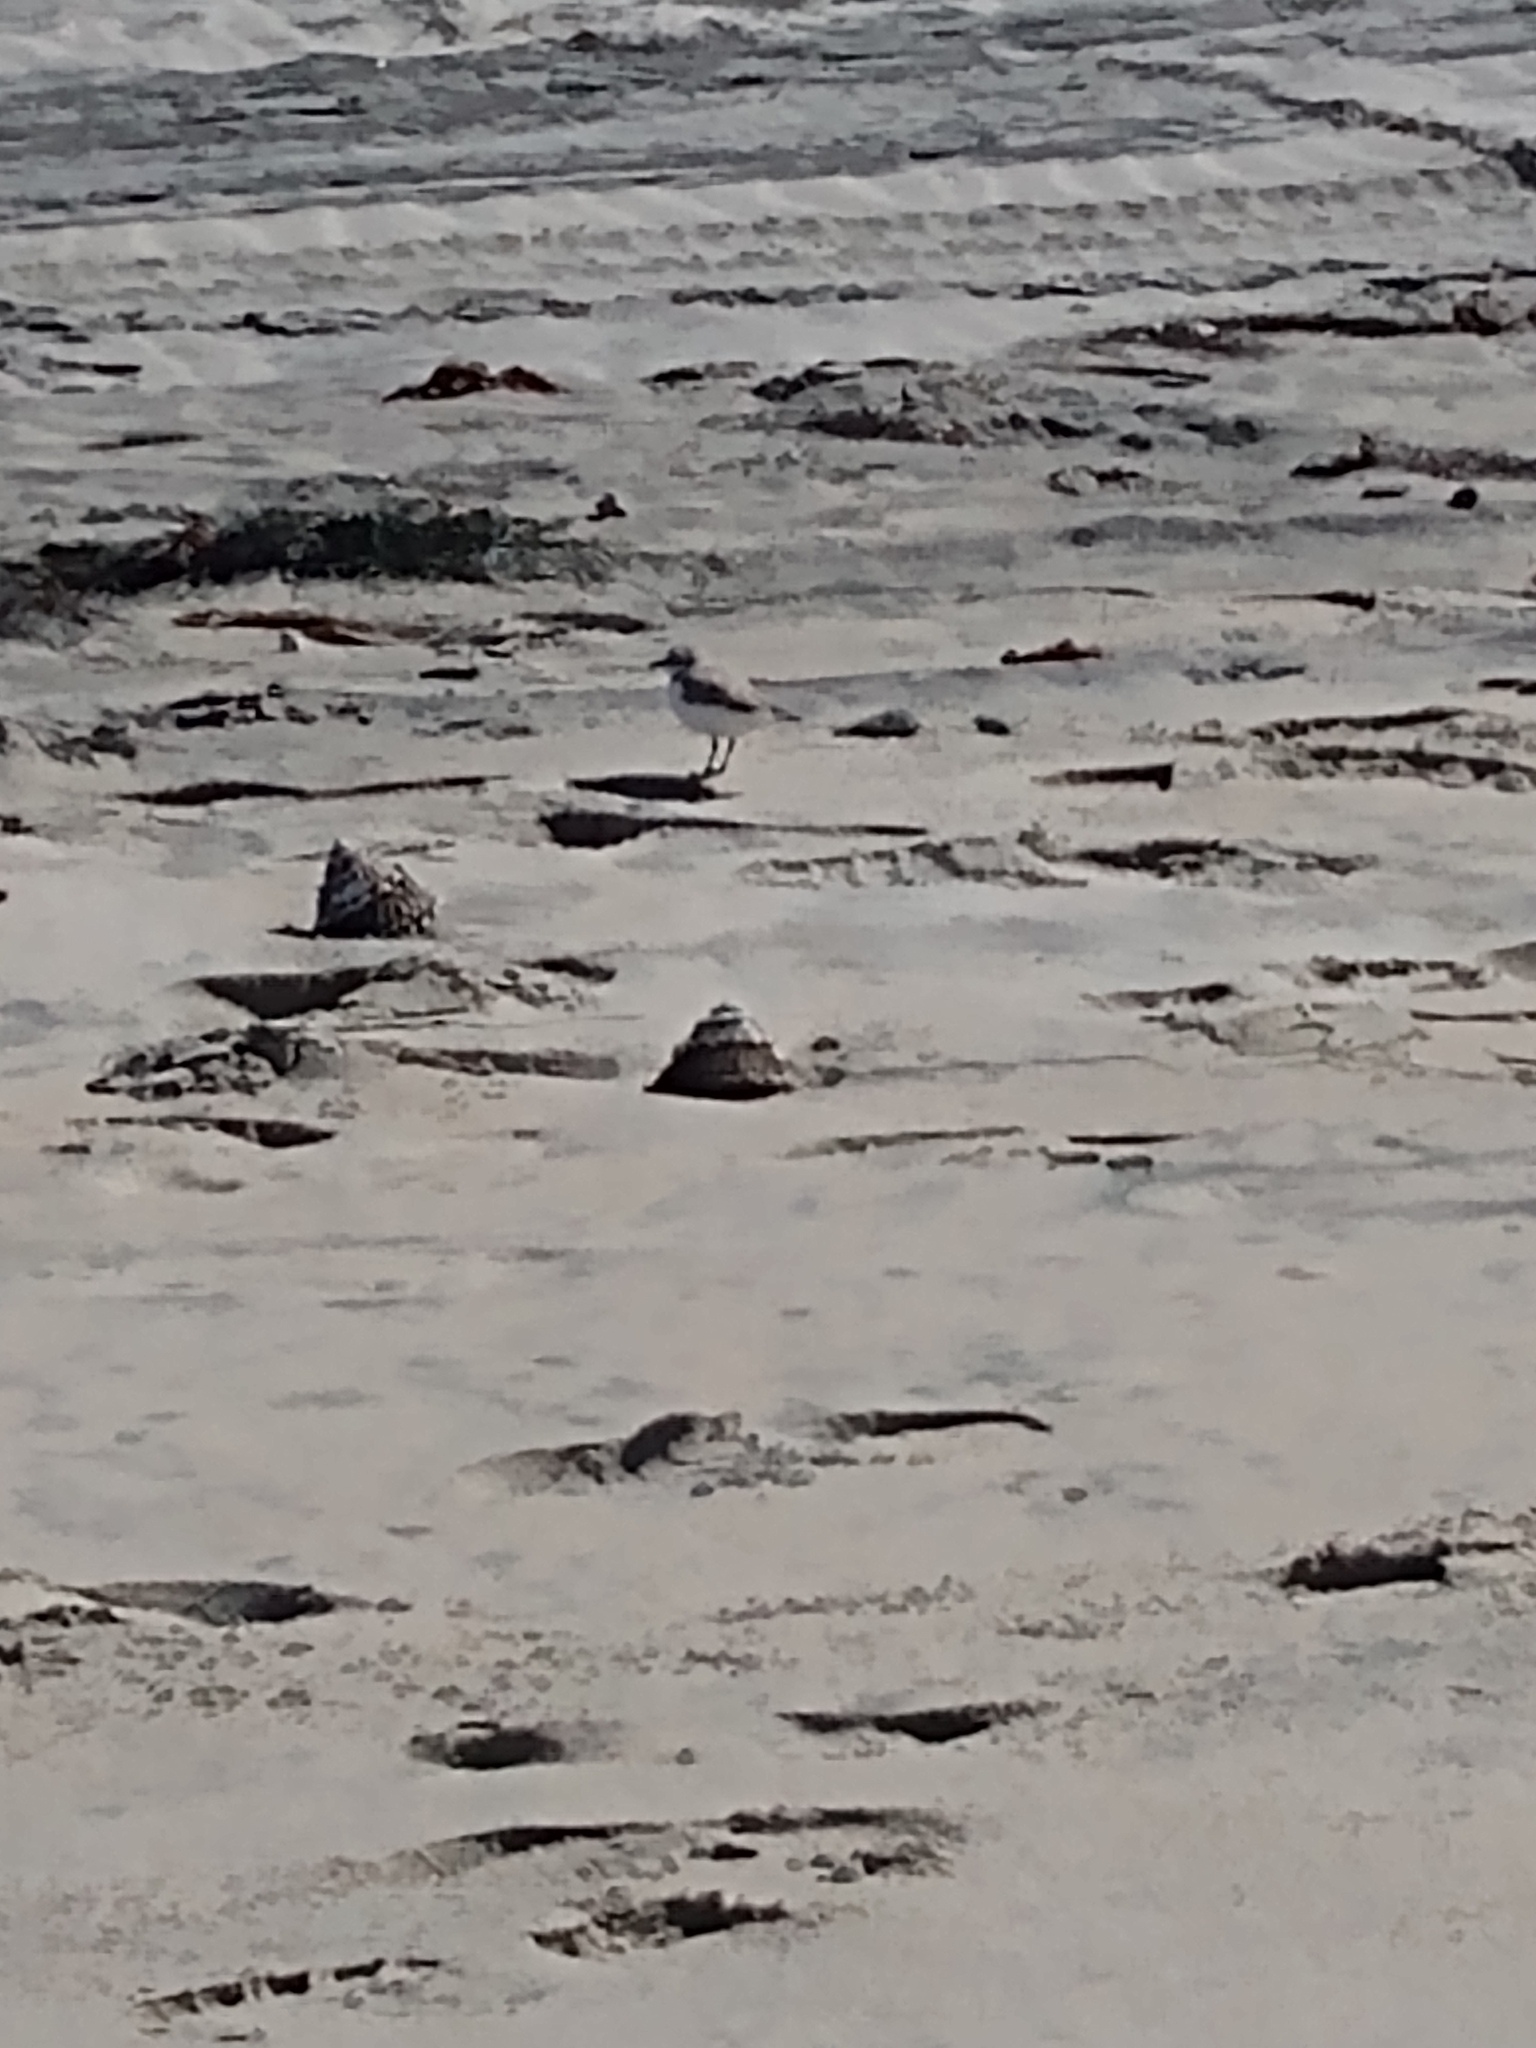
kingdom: Animalia
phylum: Chordata
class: Aves
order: Charadriiformes
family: Charadriidae
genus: Anarhynchus
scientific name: Anarhynchus
